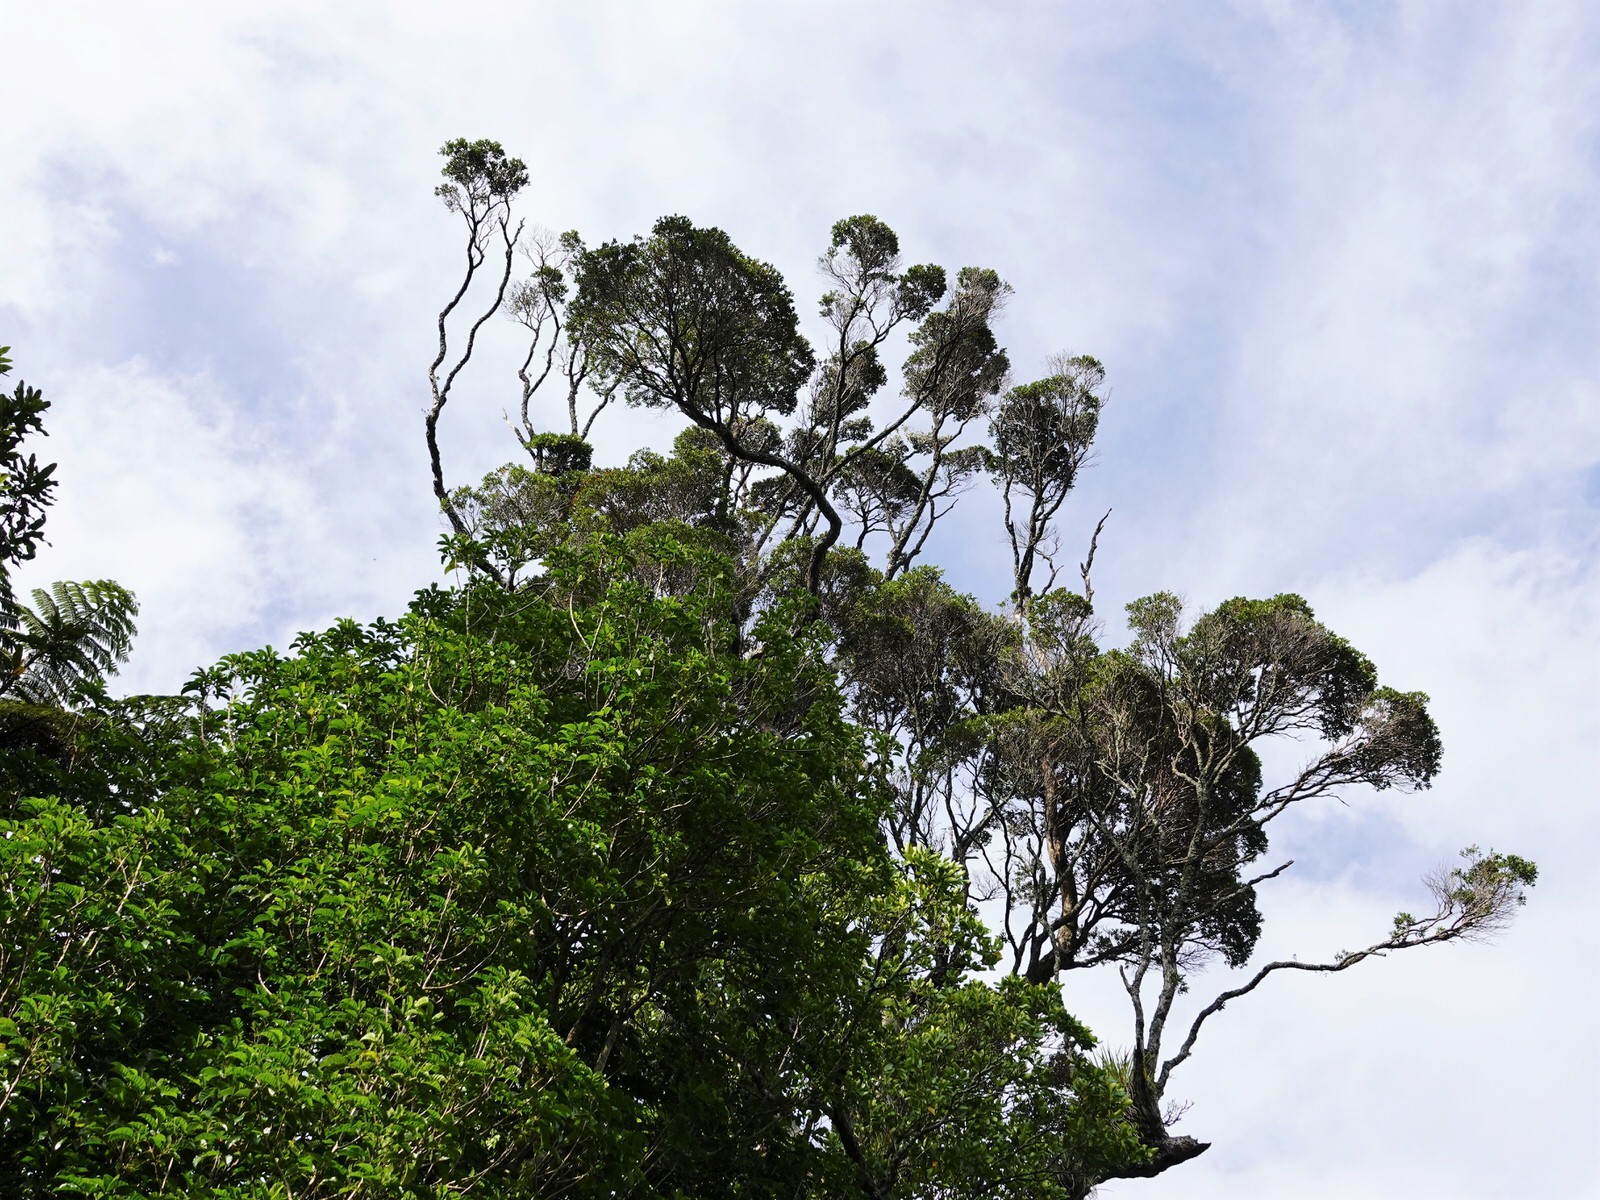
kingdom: Plantae
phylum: Tracheophyta
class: Magnoliopsida
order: Myrtales
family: Myrtaceae
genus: Metrosideros
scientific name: Metrosideros robusta
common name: Northern rata
